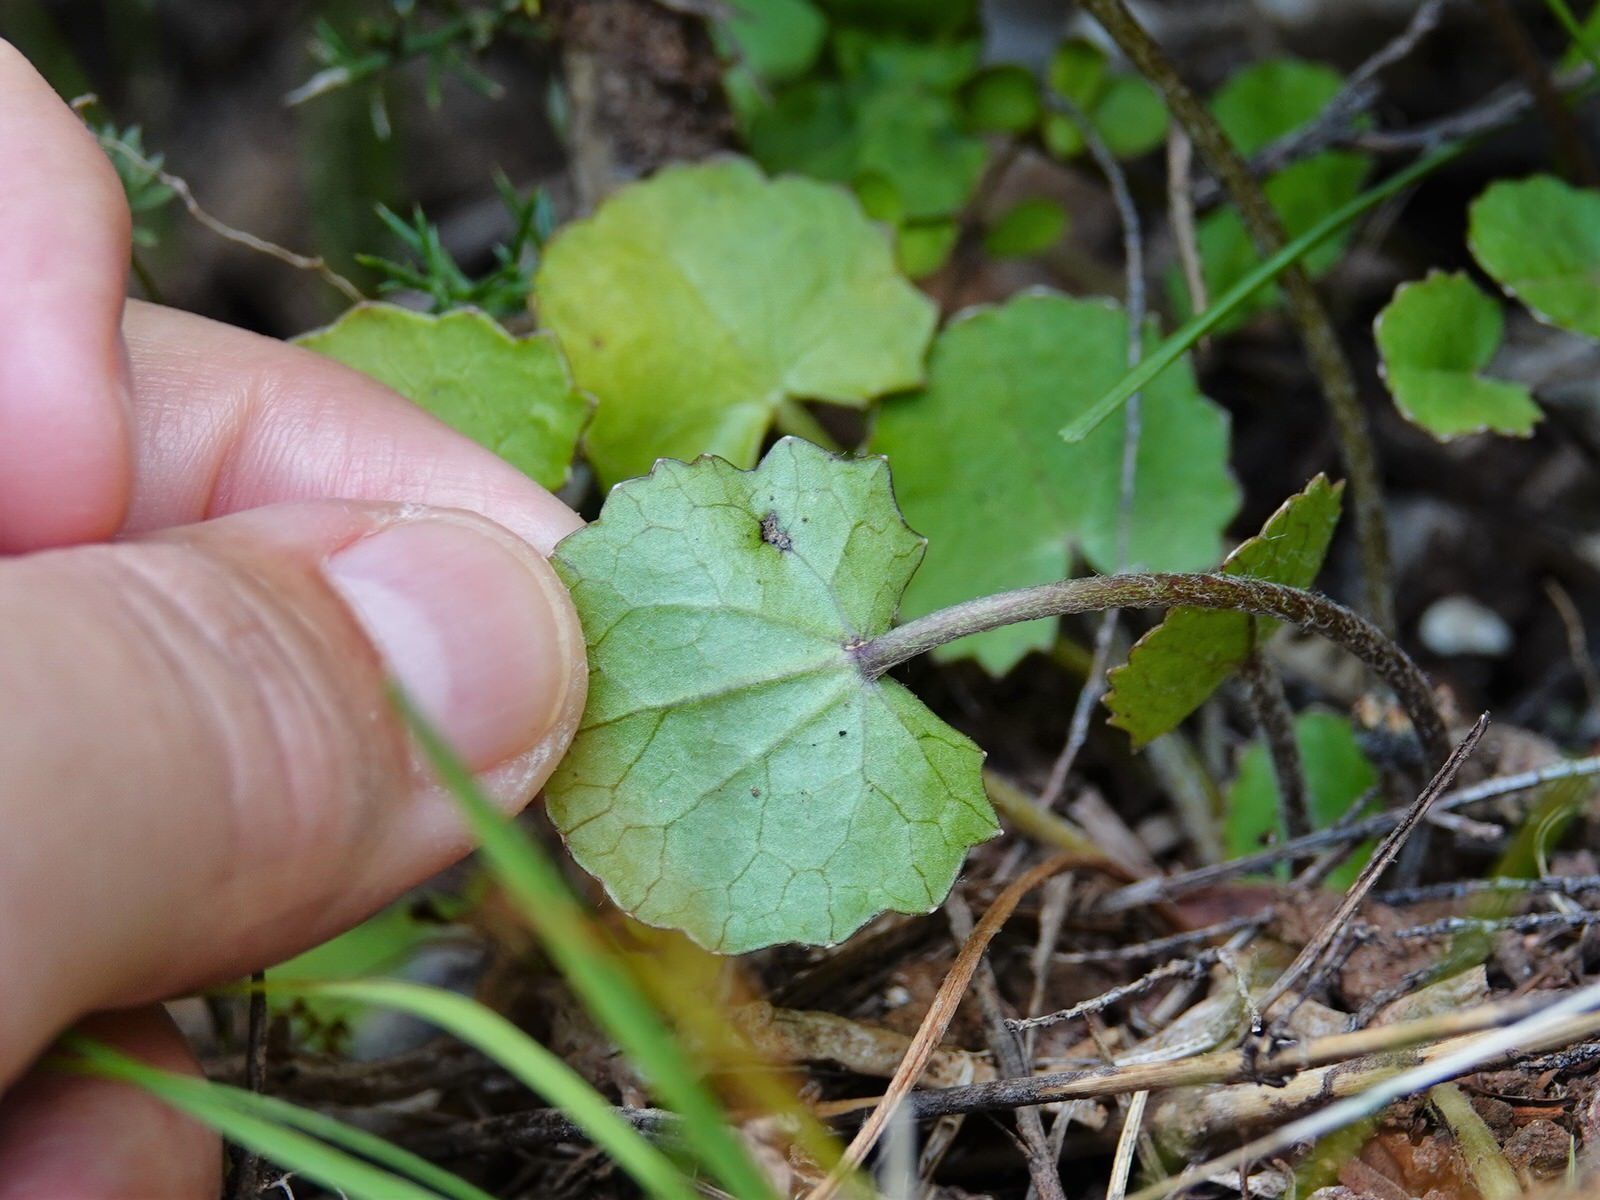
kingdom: Plantae
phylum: Tracheophyta
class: Magnoliopsida
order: Apiales
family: Apiaceae
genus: Centella
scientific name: Centella uniflora
